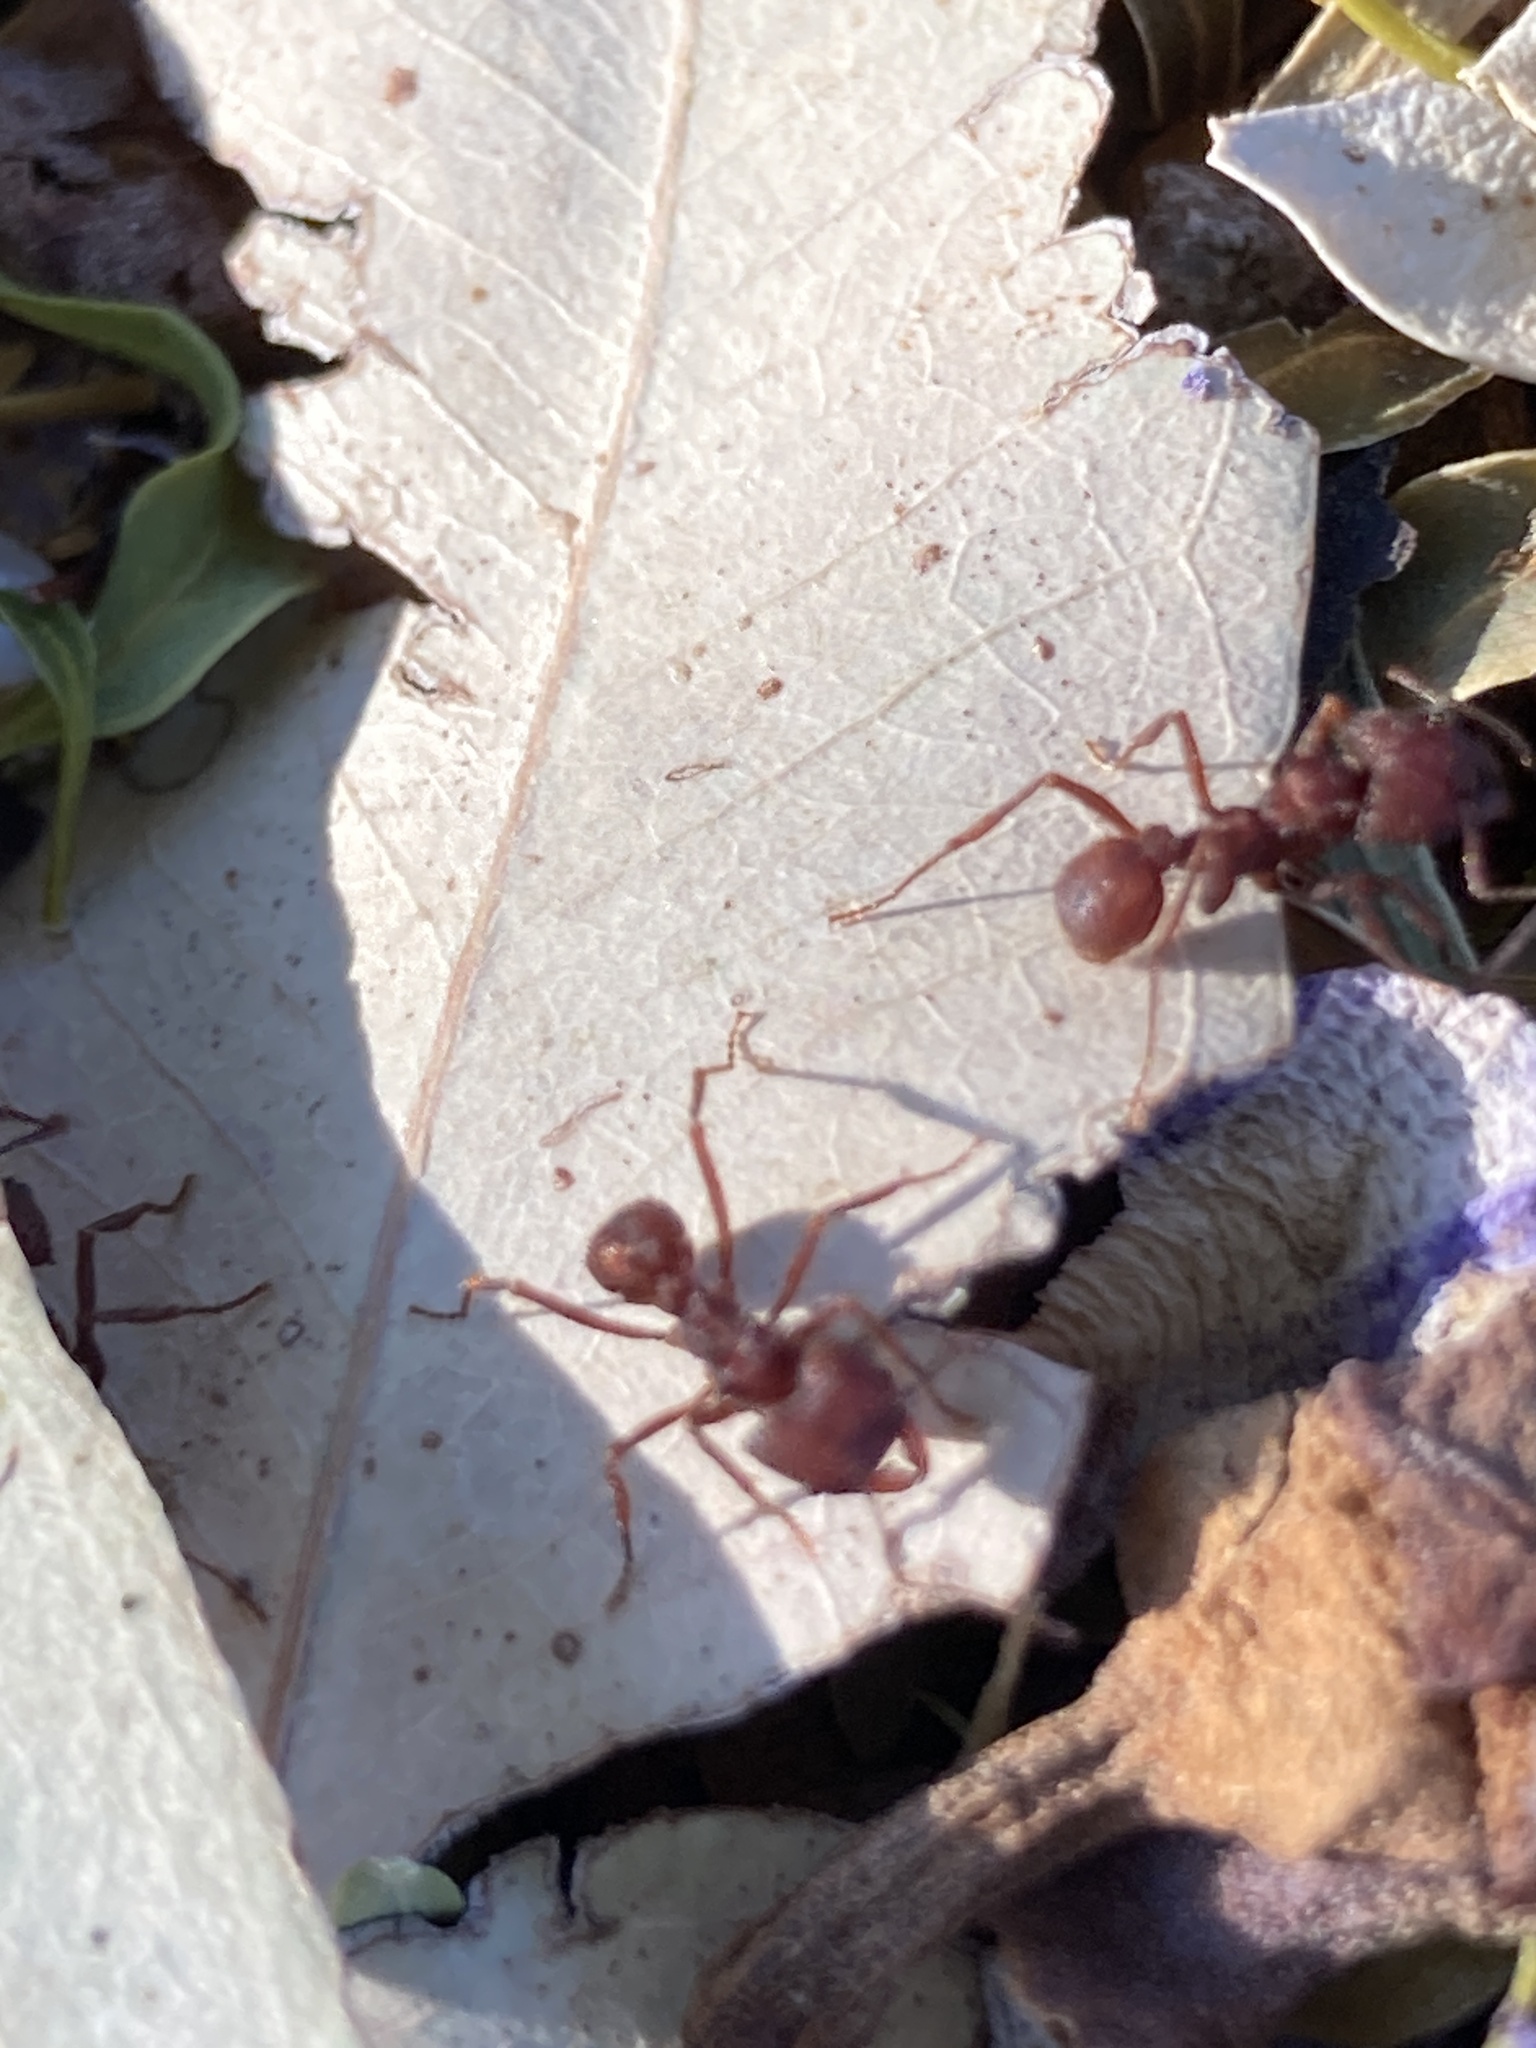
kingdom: Animalia
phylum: Arthropoda
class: Insecta
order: Hymenoptera
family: Formicidae
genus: Acromyrmex
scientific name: Acromyrmex versicolor
